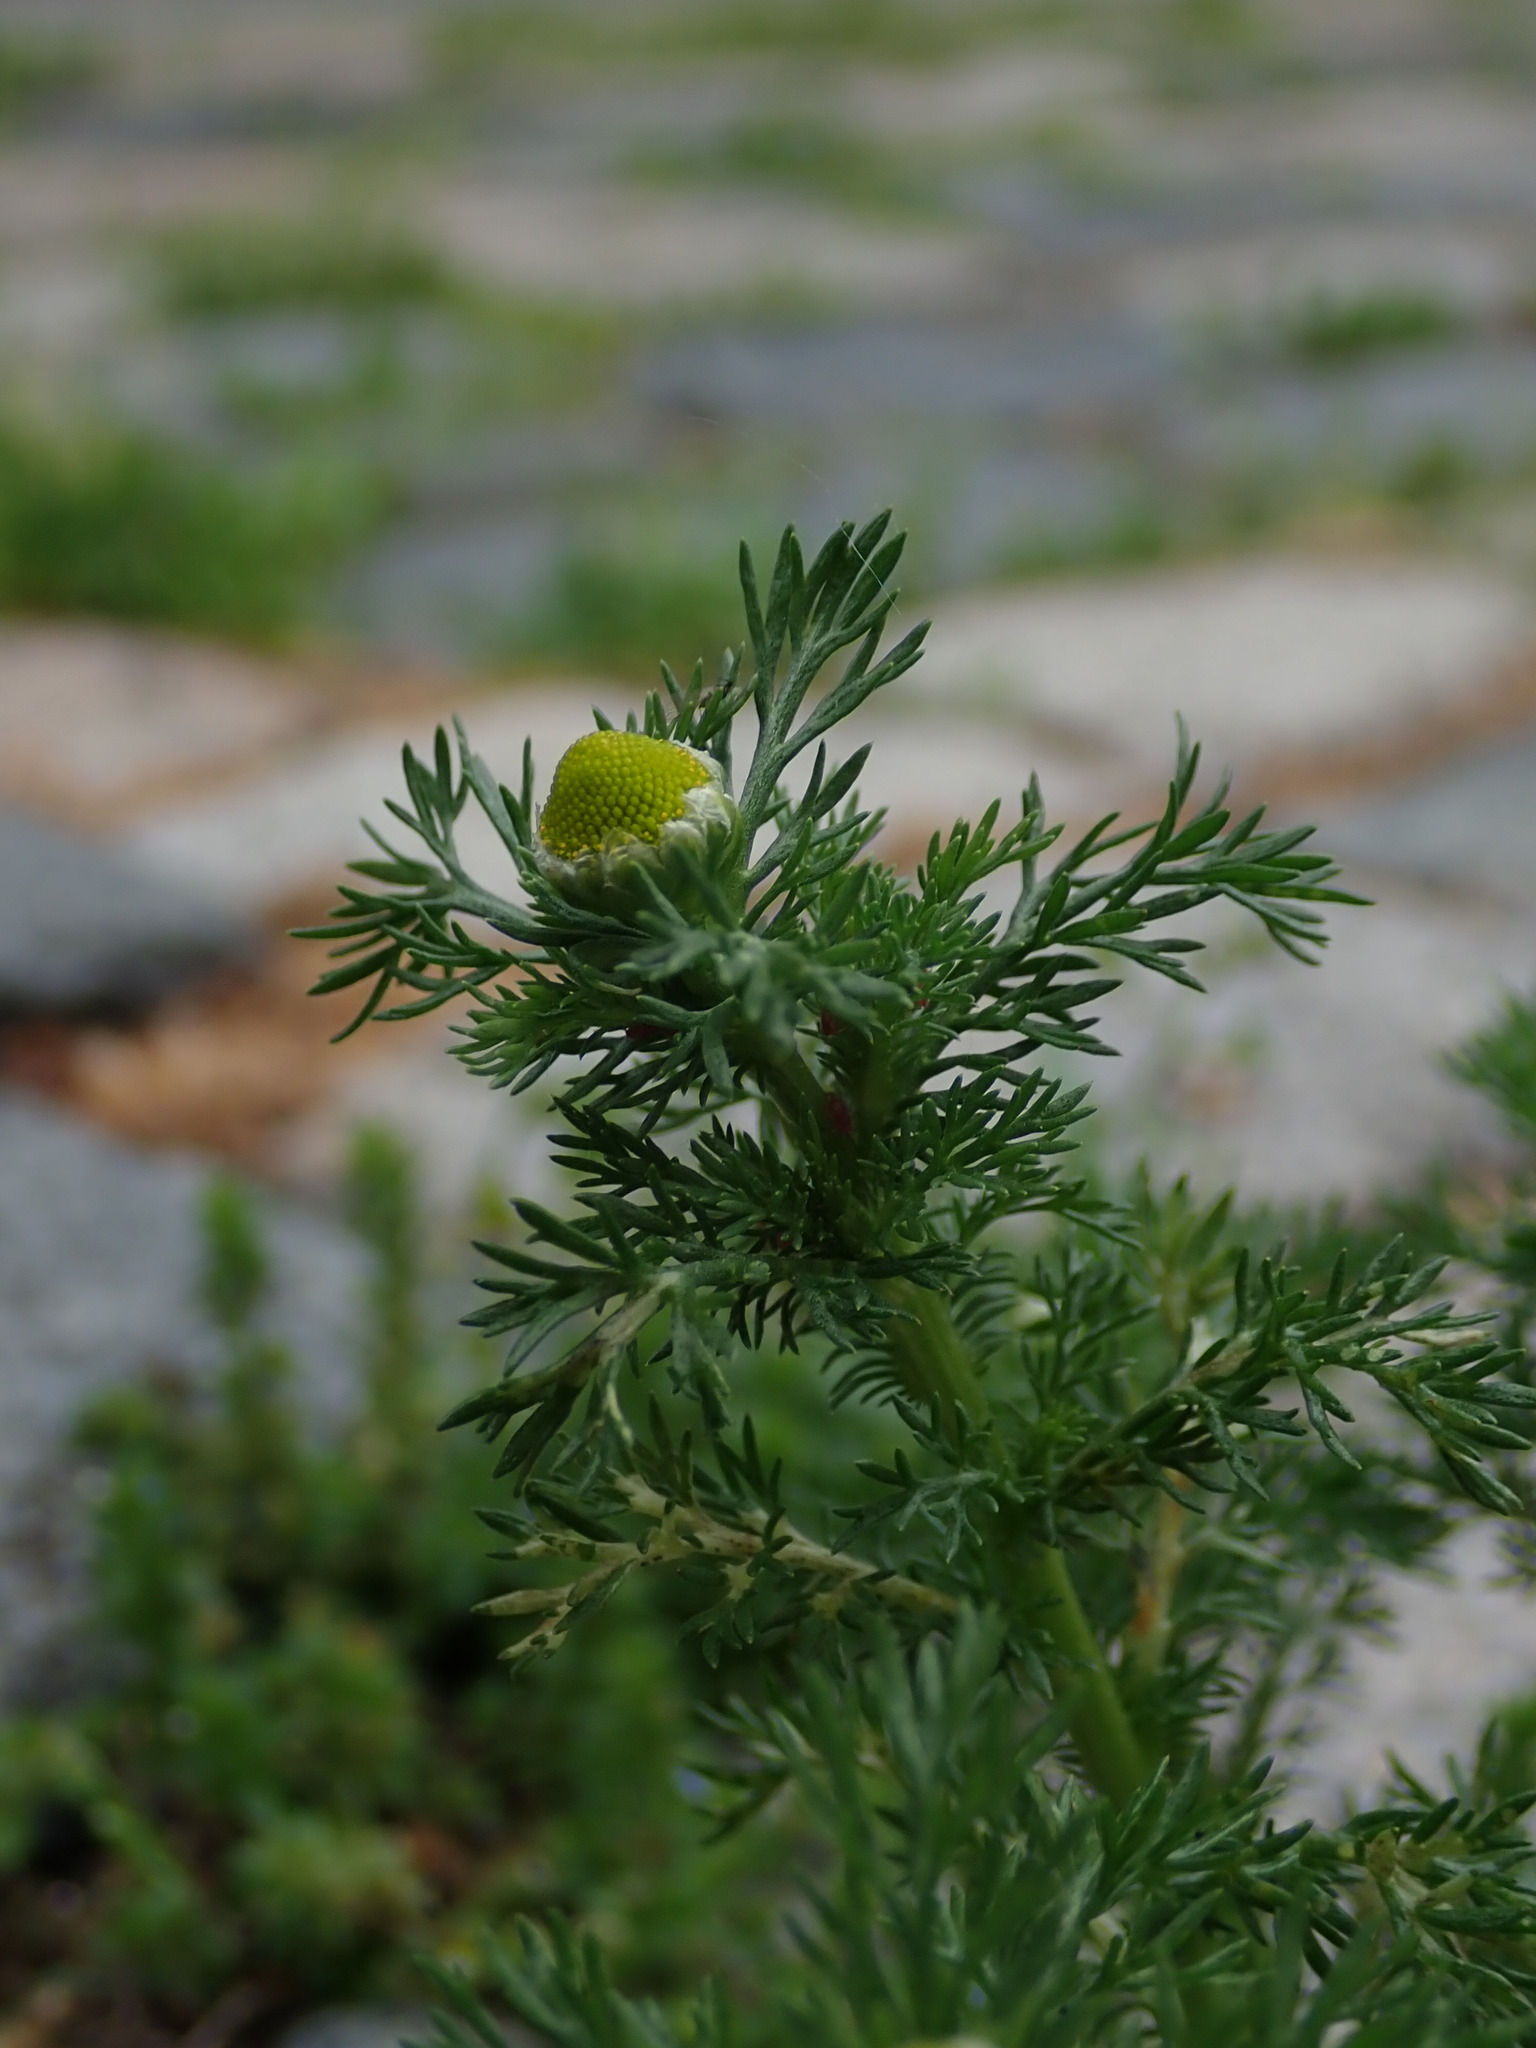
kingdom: Plantae
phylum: Tracheophyta
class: Magnoliopsida
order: Asterales
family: Asteraceae
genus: Matricaria
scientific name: Matricaria discoidea
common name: Disc mayweed
